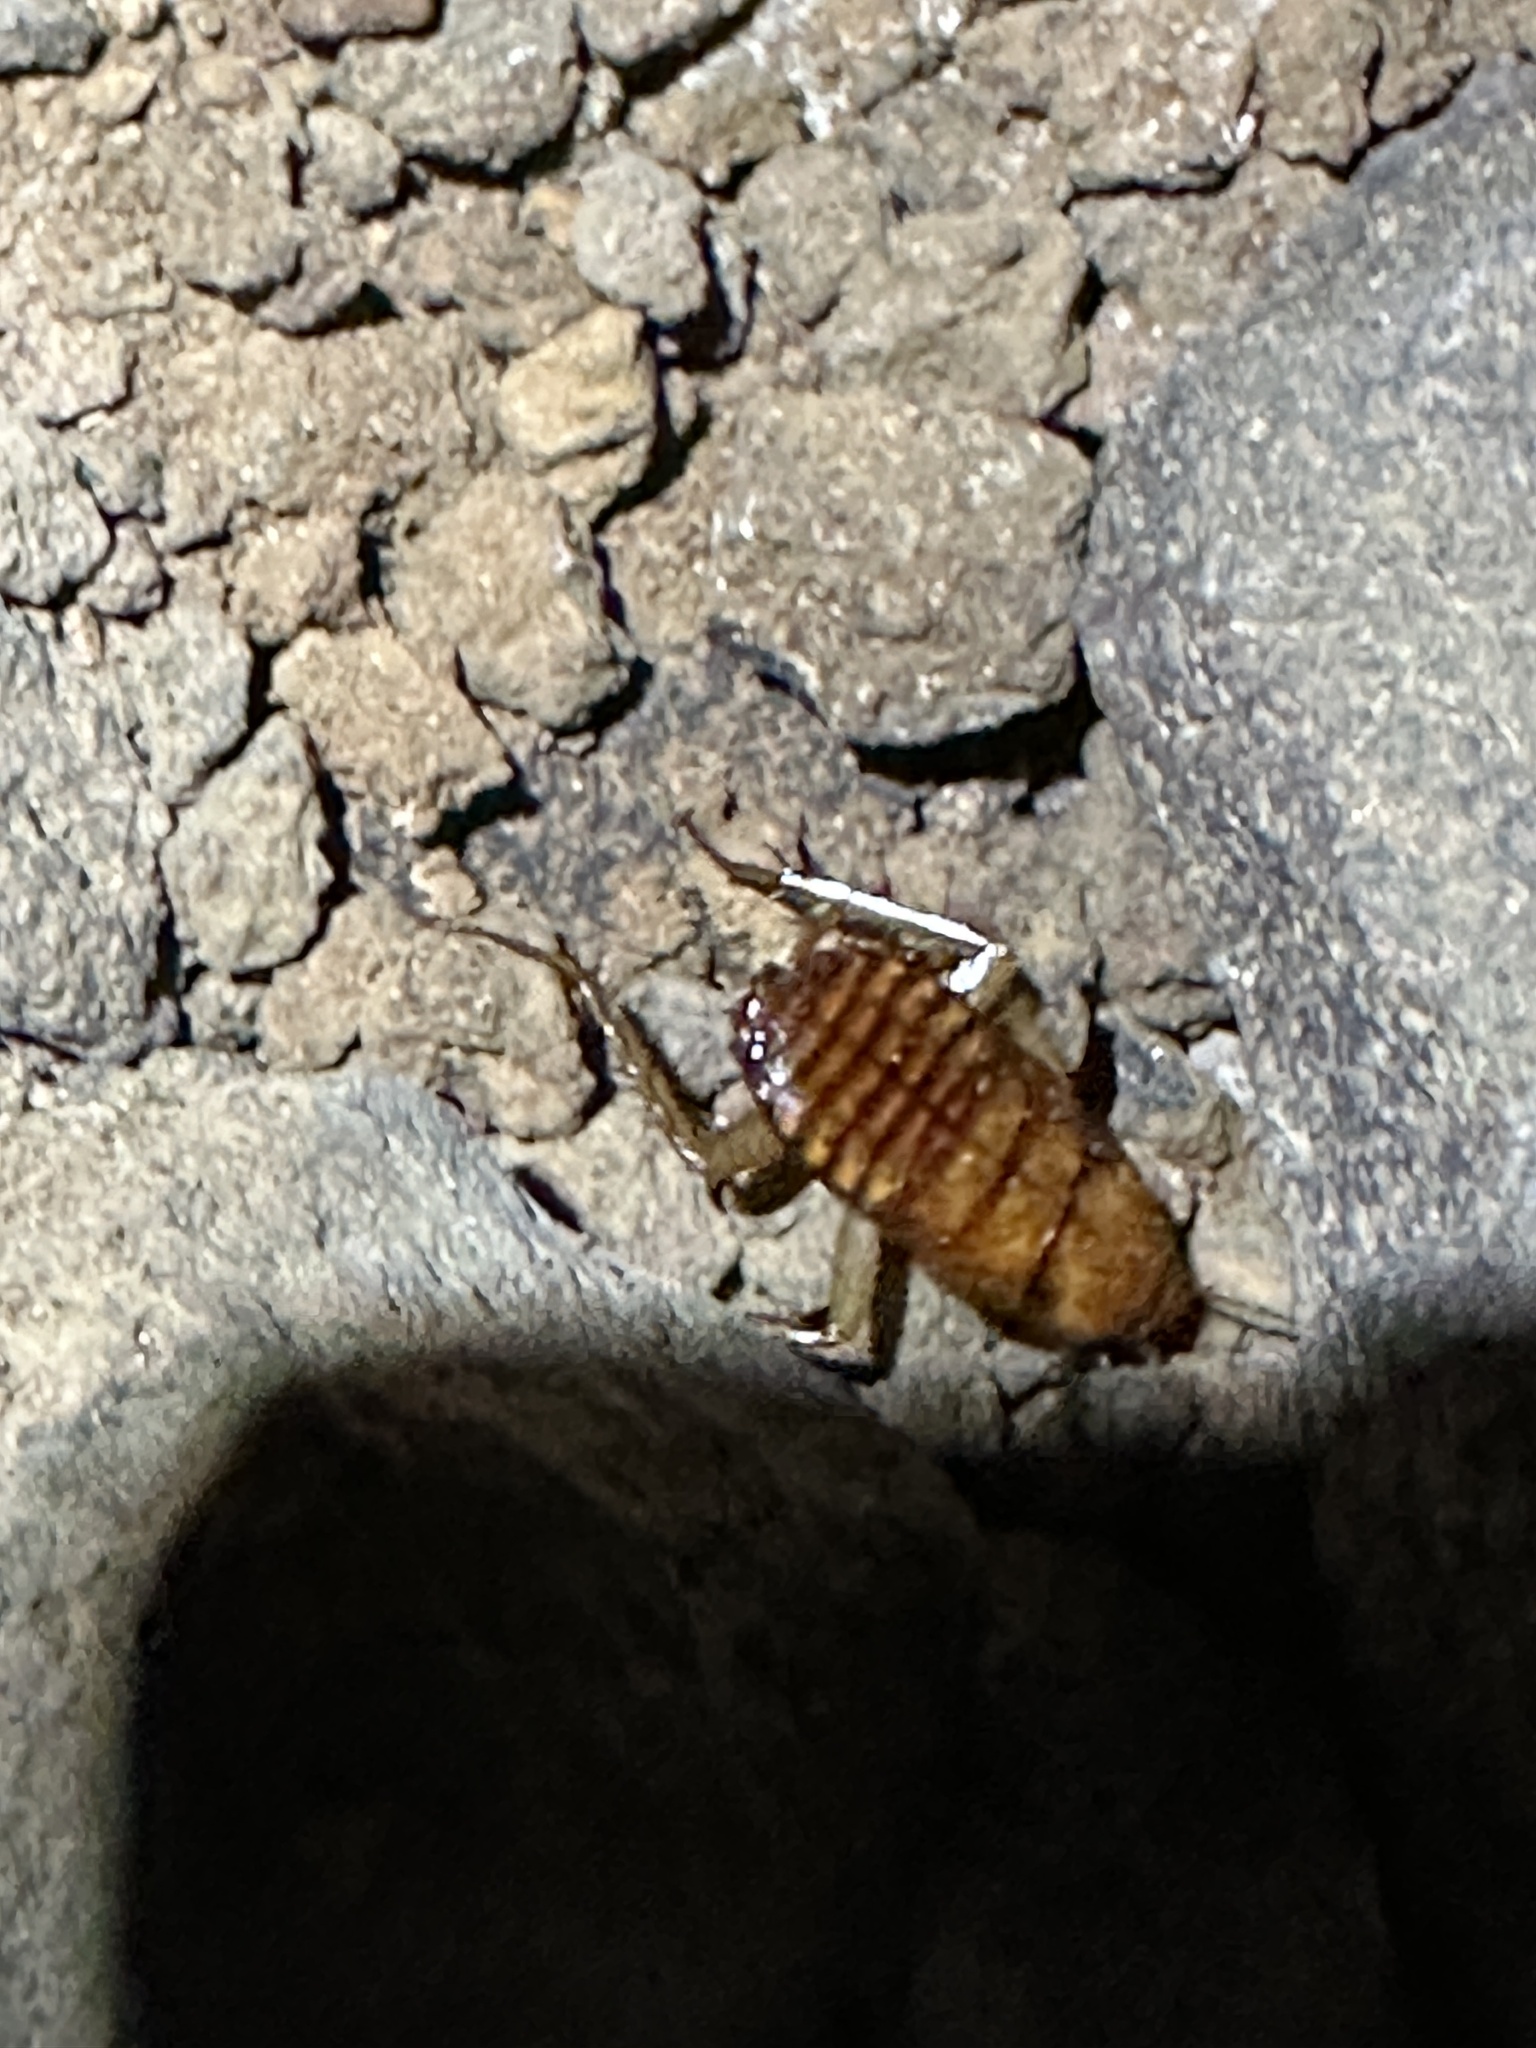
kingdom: Animalia
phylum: Arthropoda
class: Insecta
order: Blattodea
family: Blattidae
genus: Periplaneta
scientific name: Periplaneta americana
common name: American cockroach
